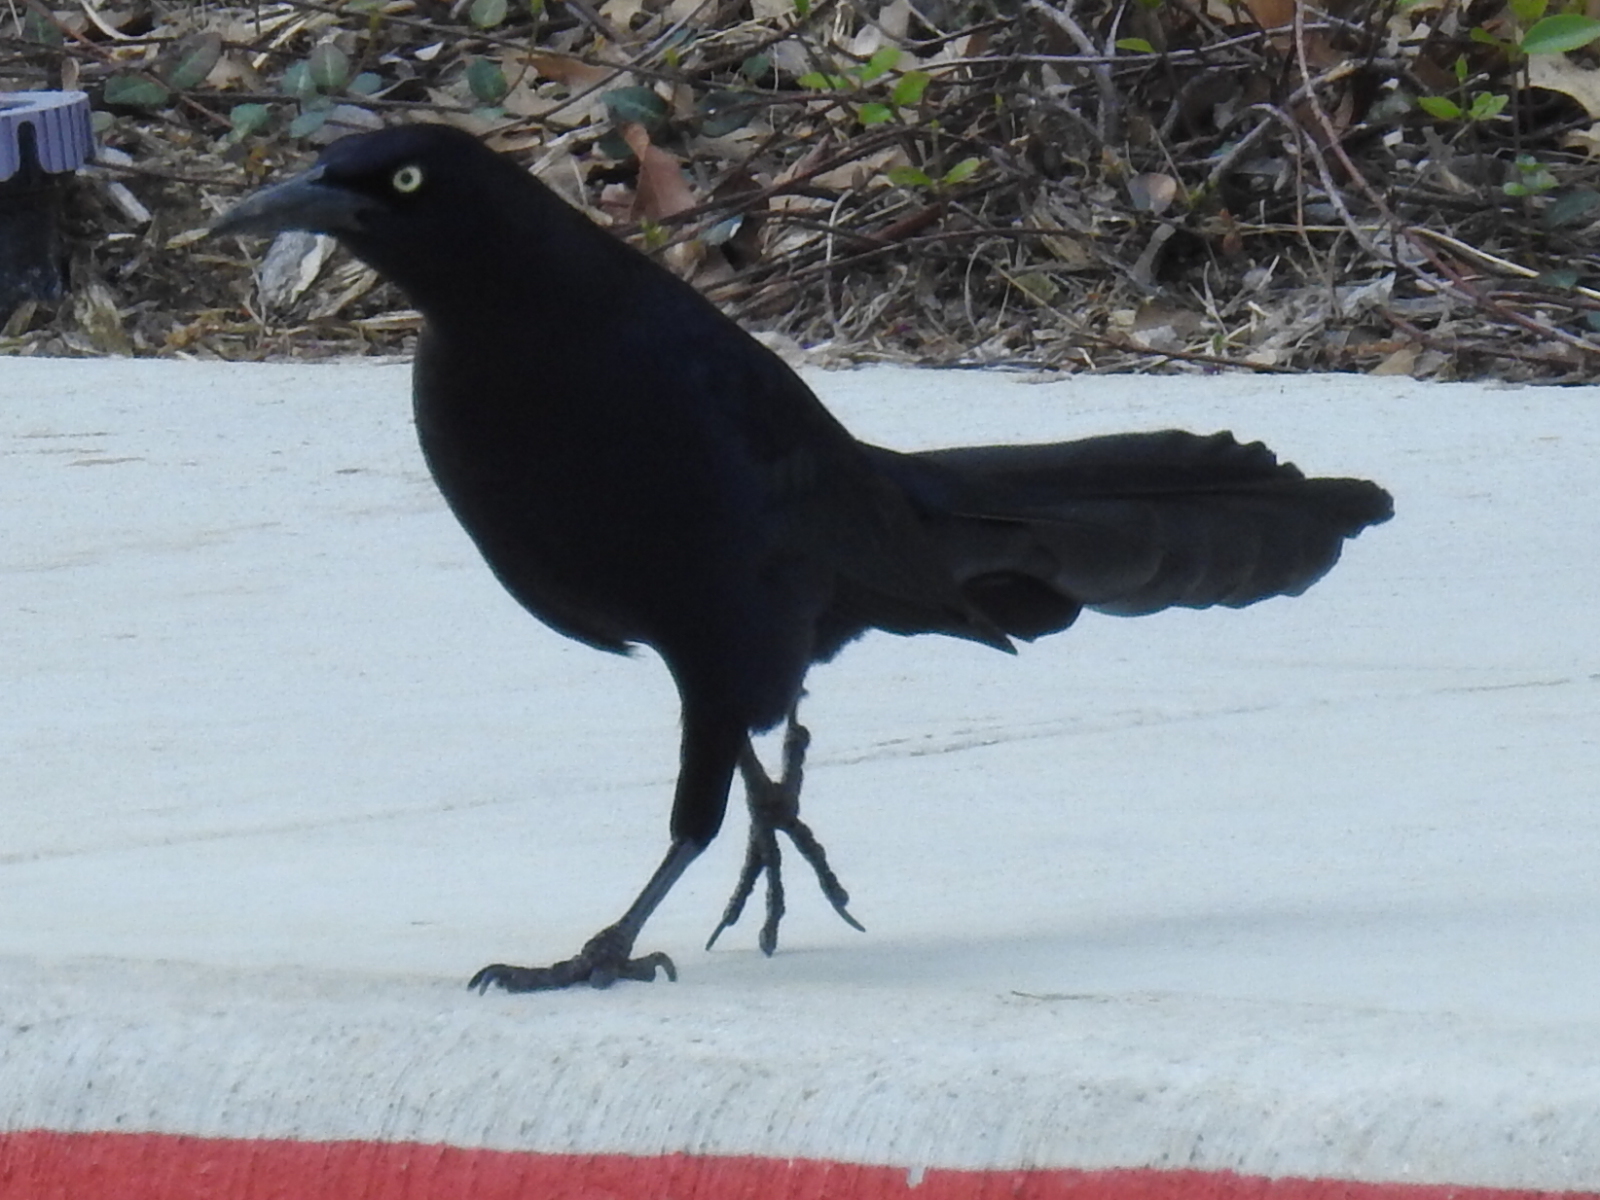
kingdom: Animalia
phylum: Chordata
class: Aves
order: Passeriformes
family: Icteridae
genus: Quiscalus
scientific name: Quiscalus mexicanus
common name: Great-tailed grackle
